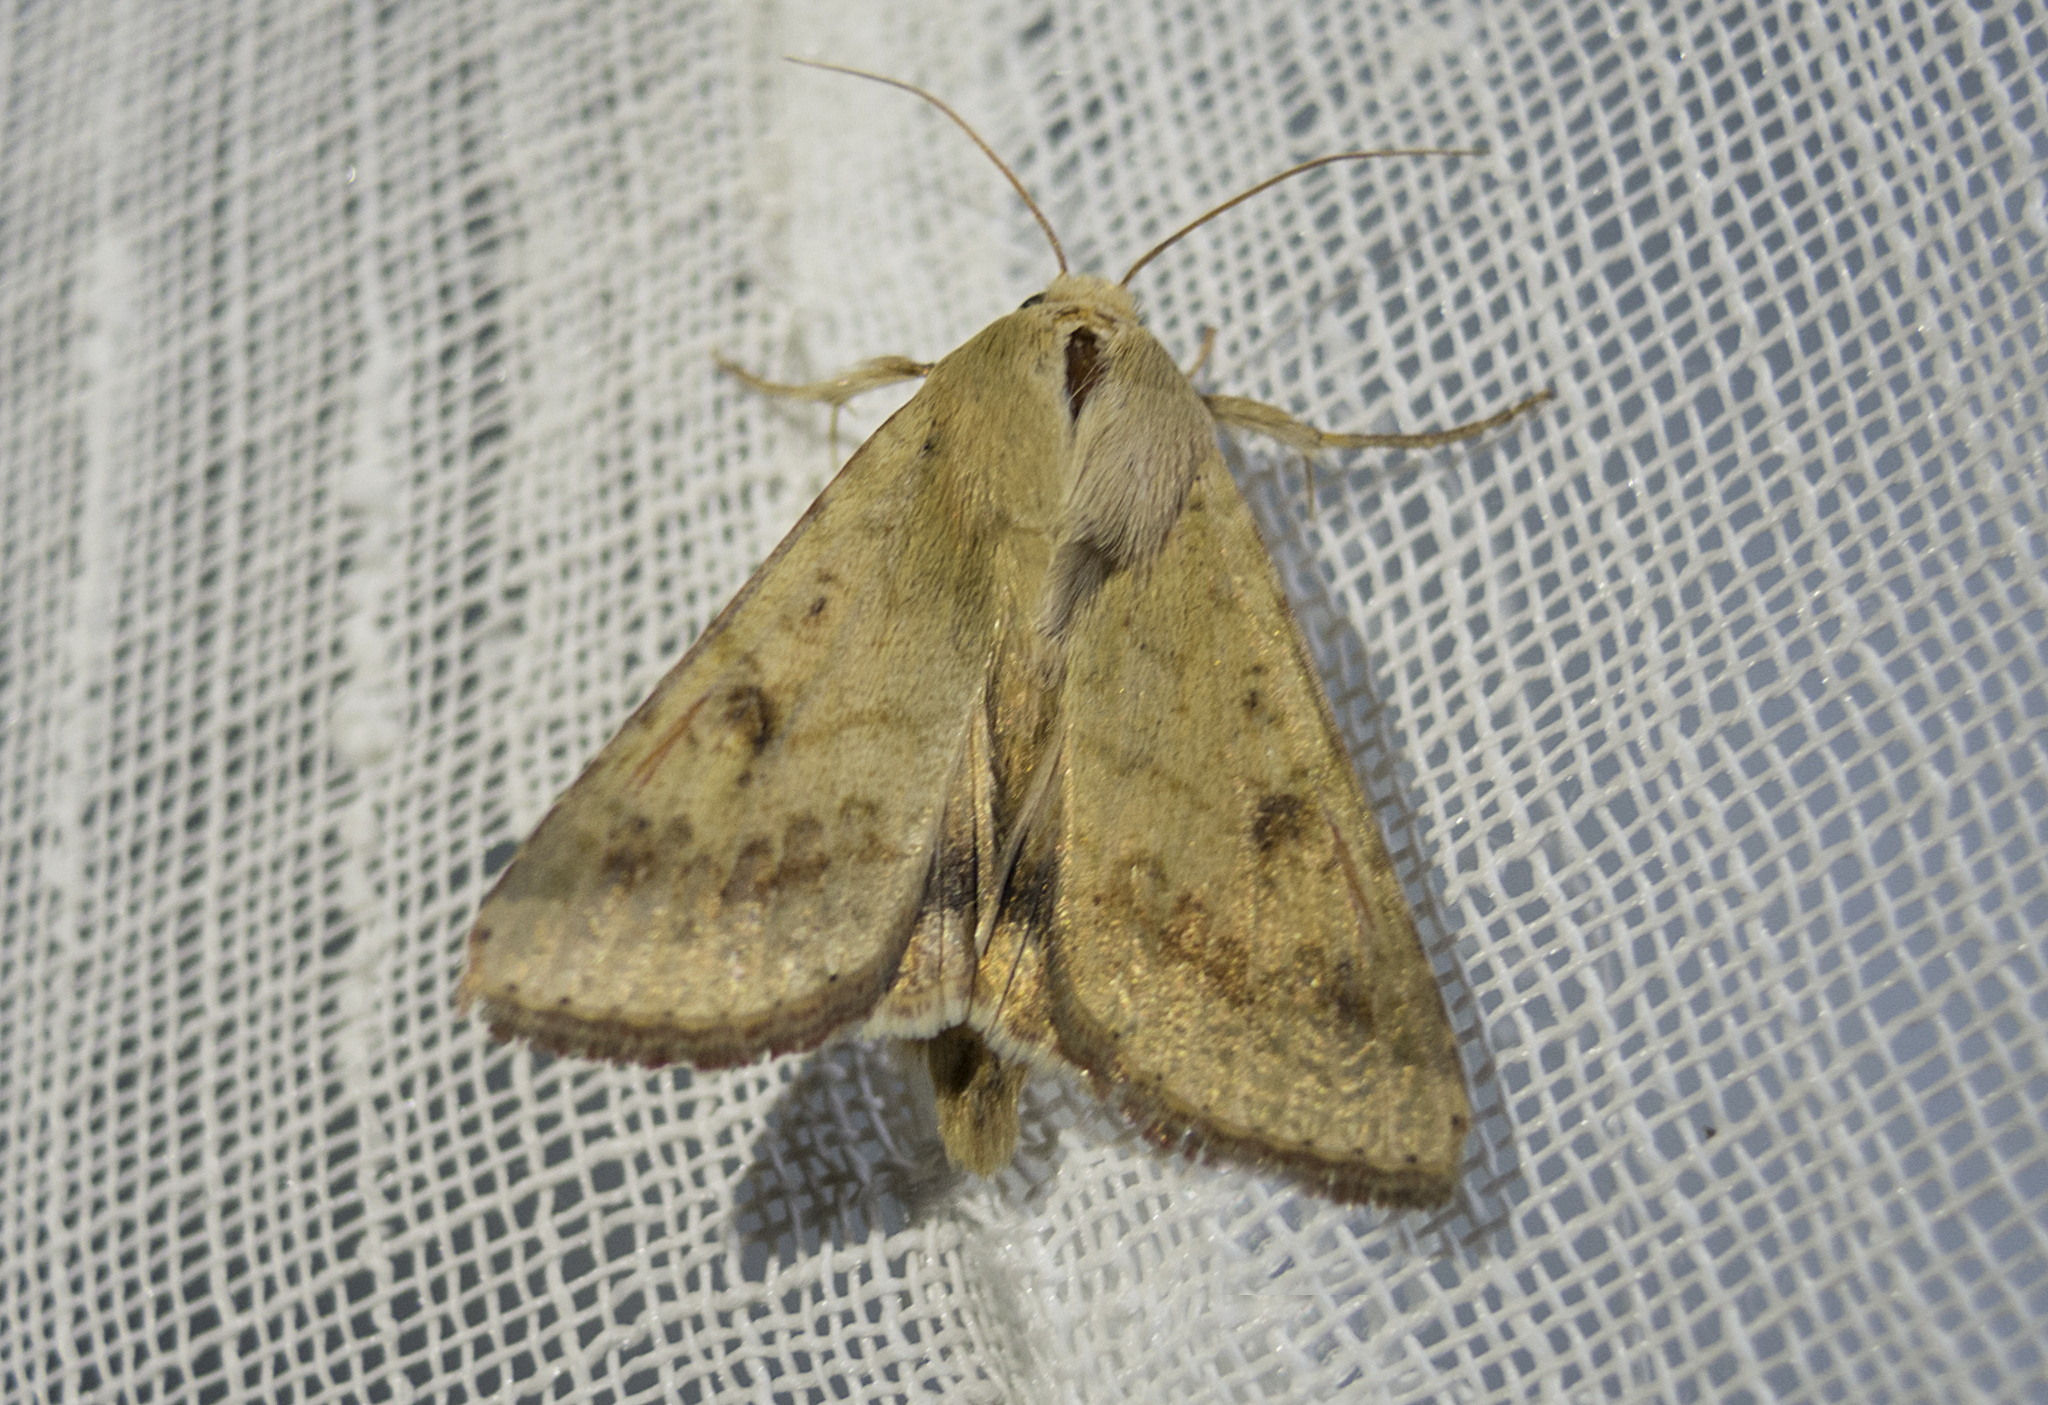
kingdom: Animalia
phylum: Arthropoda
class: Insecta
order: Lepidoptera
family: Noctuidae
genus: Helicoverpa
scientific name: Helicoverpa armigera
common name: Cotton bollworm
